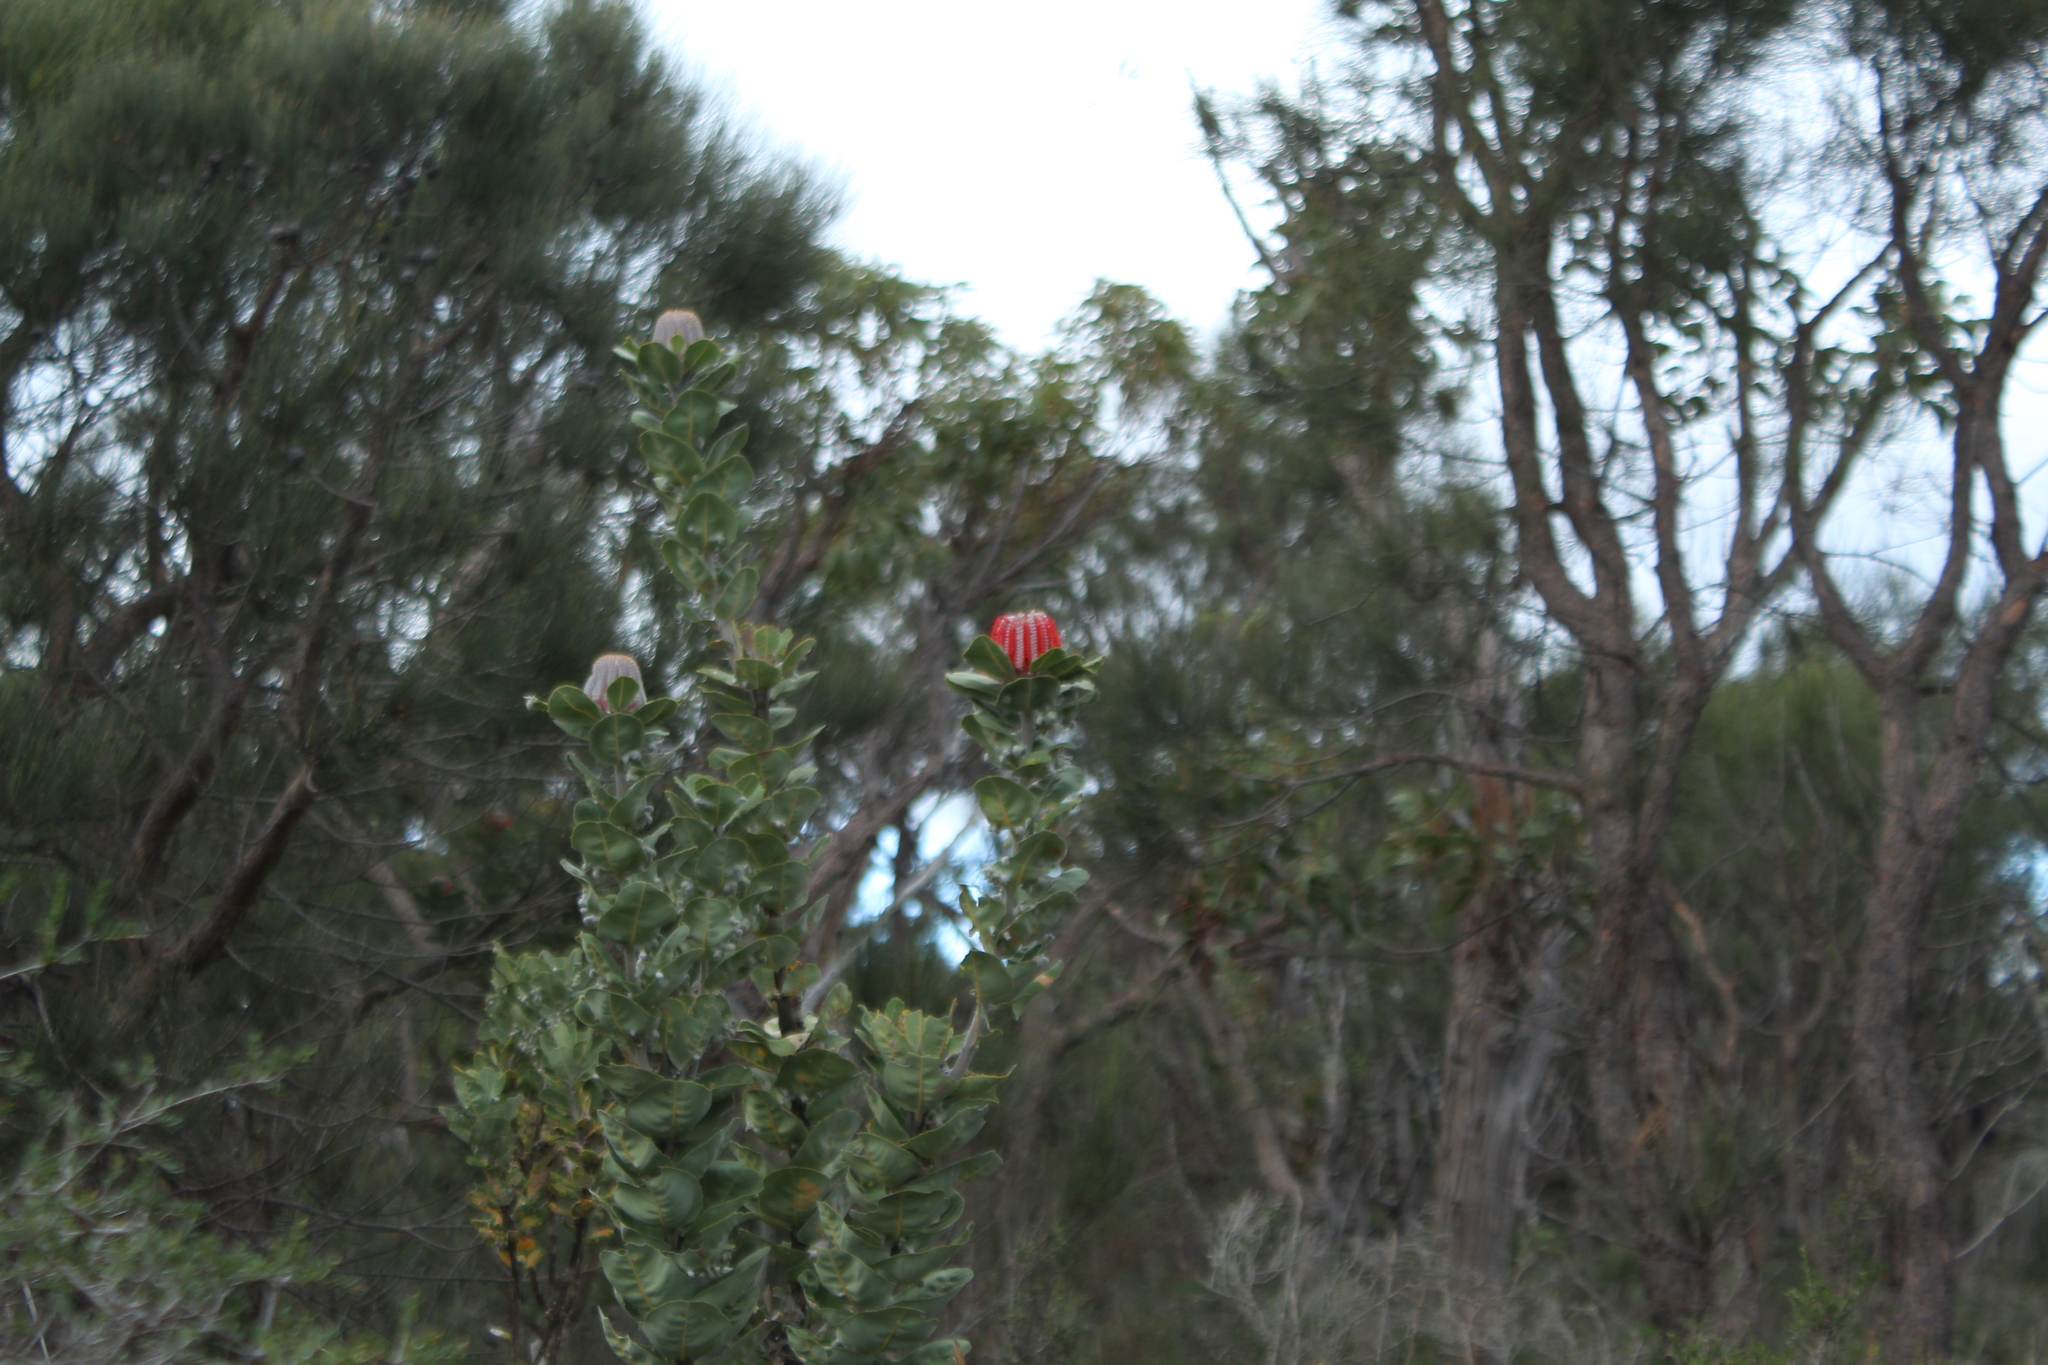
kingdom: Plantae
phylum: Tracheophyta
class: Magnoliopsida
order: Proteales
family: Proteaceae
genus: Banksia
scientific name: Banksia coccinea
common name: Scarlet banksia
